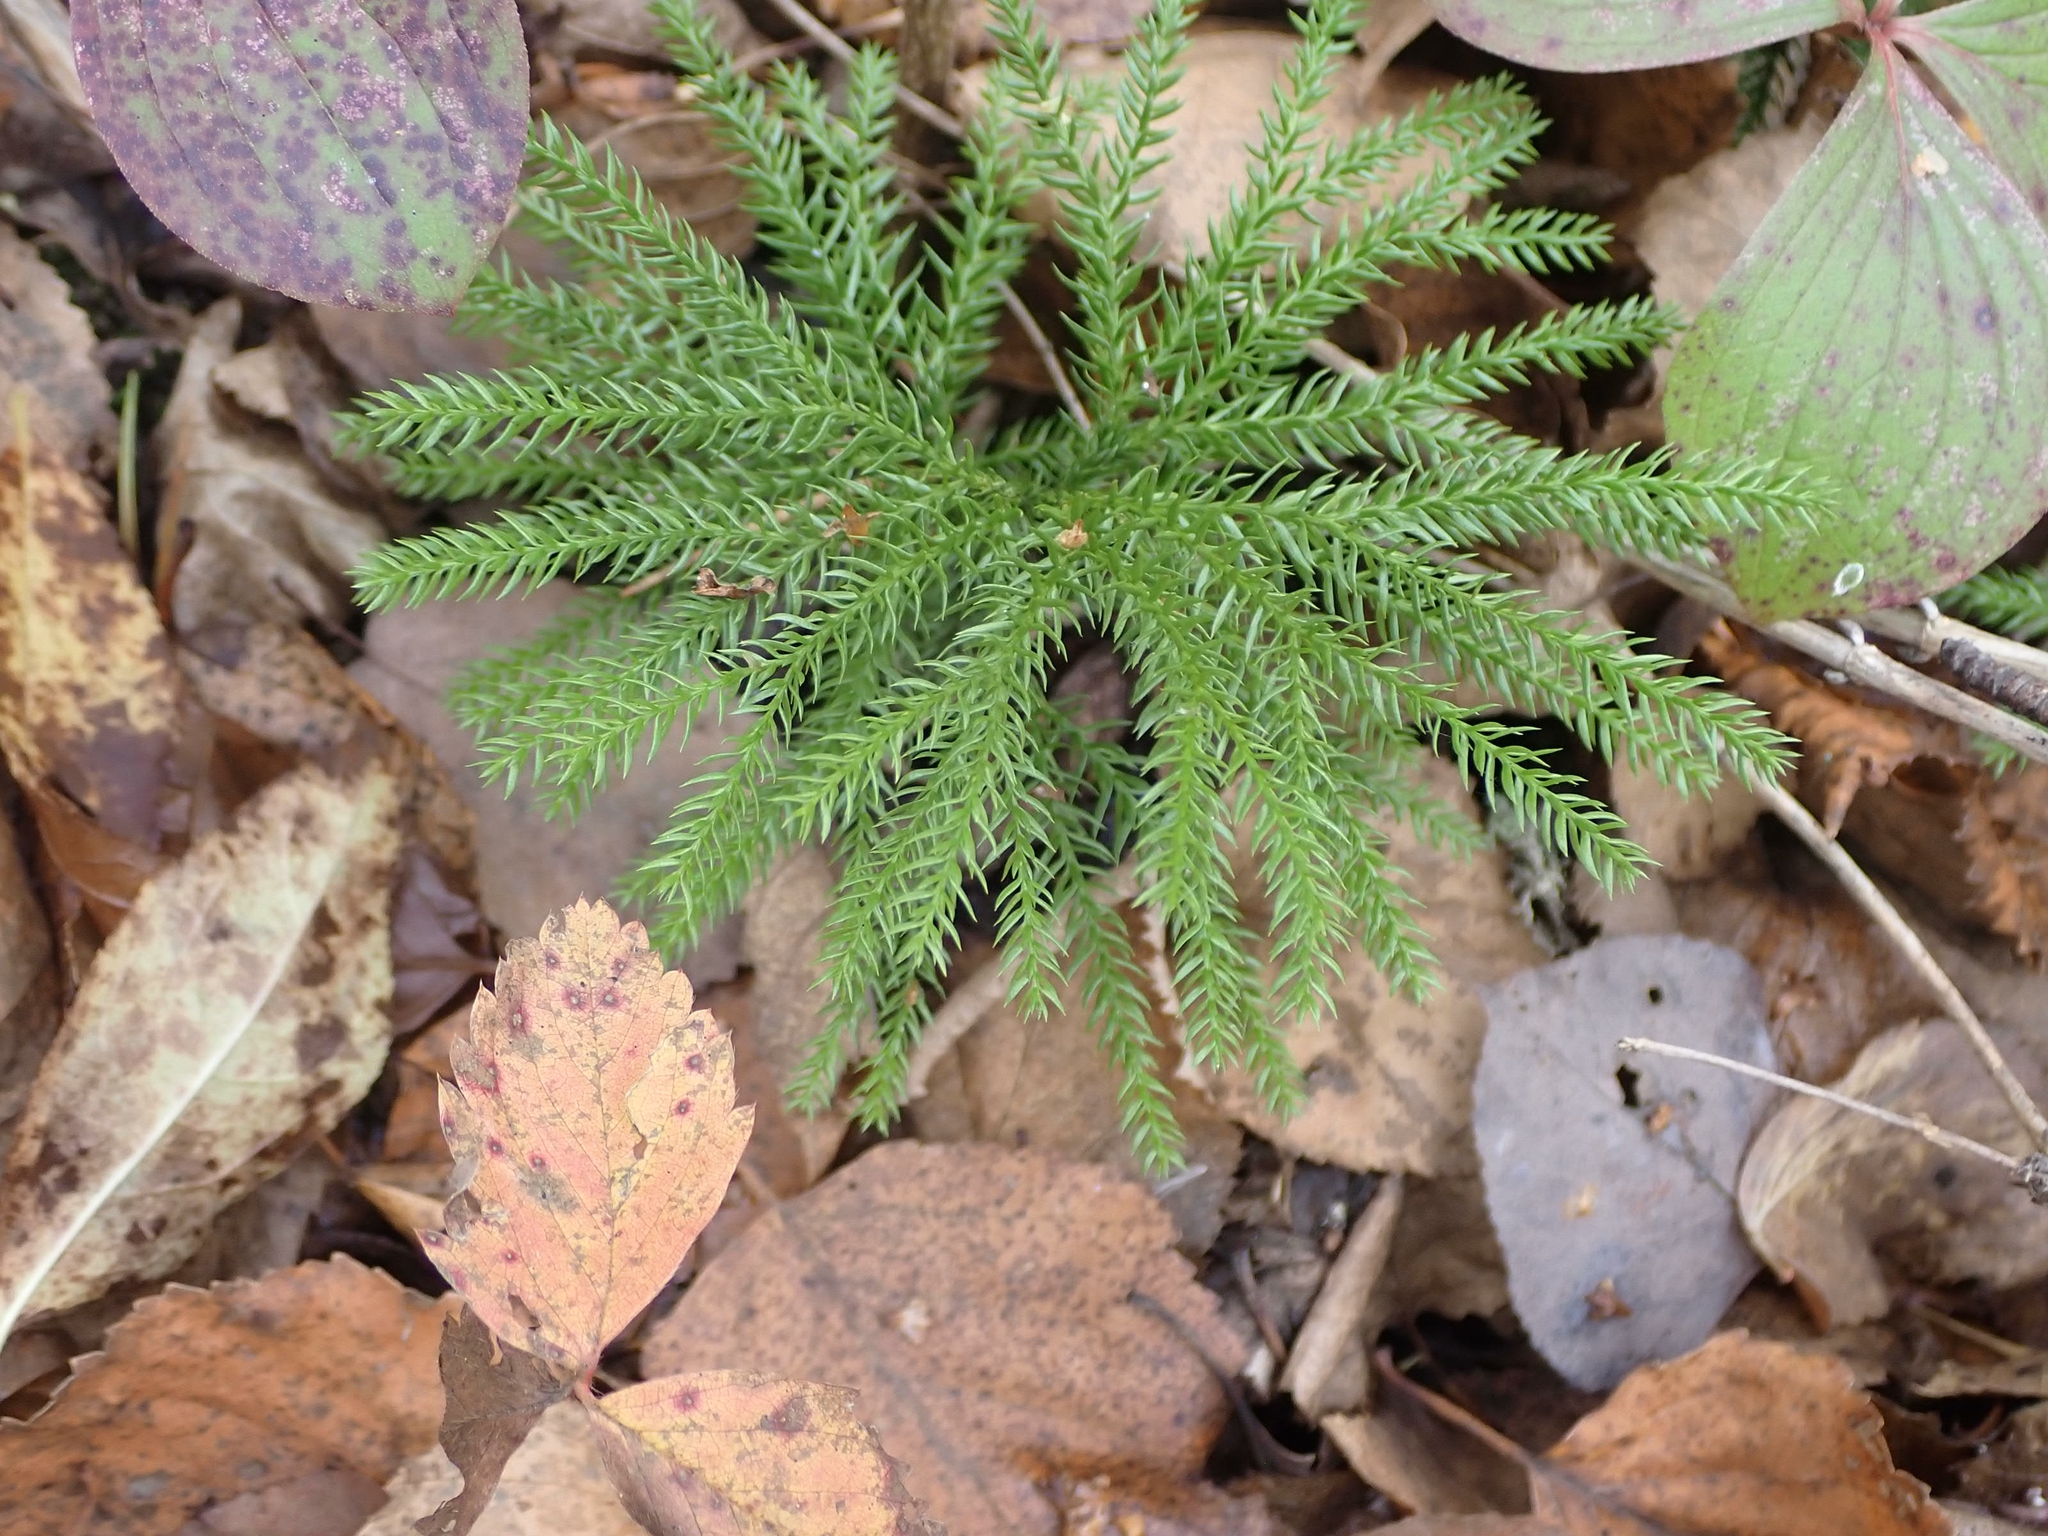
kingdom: Plantae
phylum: Tracheophyta
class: Lycopodiopsida
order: Lycopodiales
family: Lycopodiaceae
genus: Dendrolycopodium
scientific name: Dendrolycopodium dendroideum
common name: Northern tree-clubmoss
